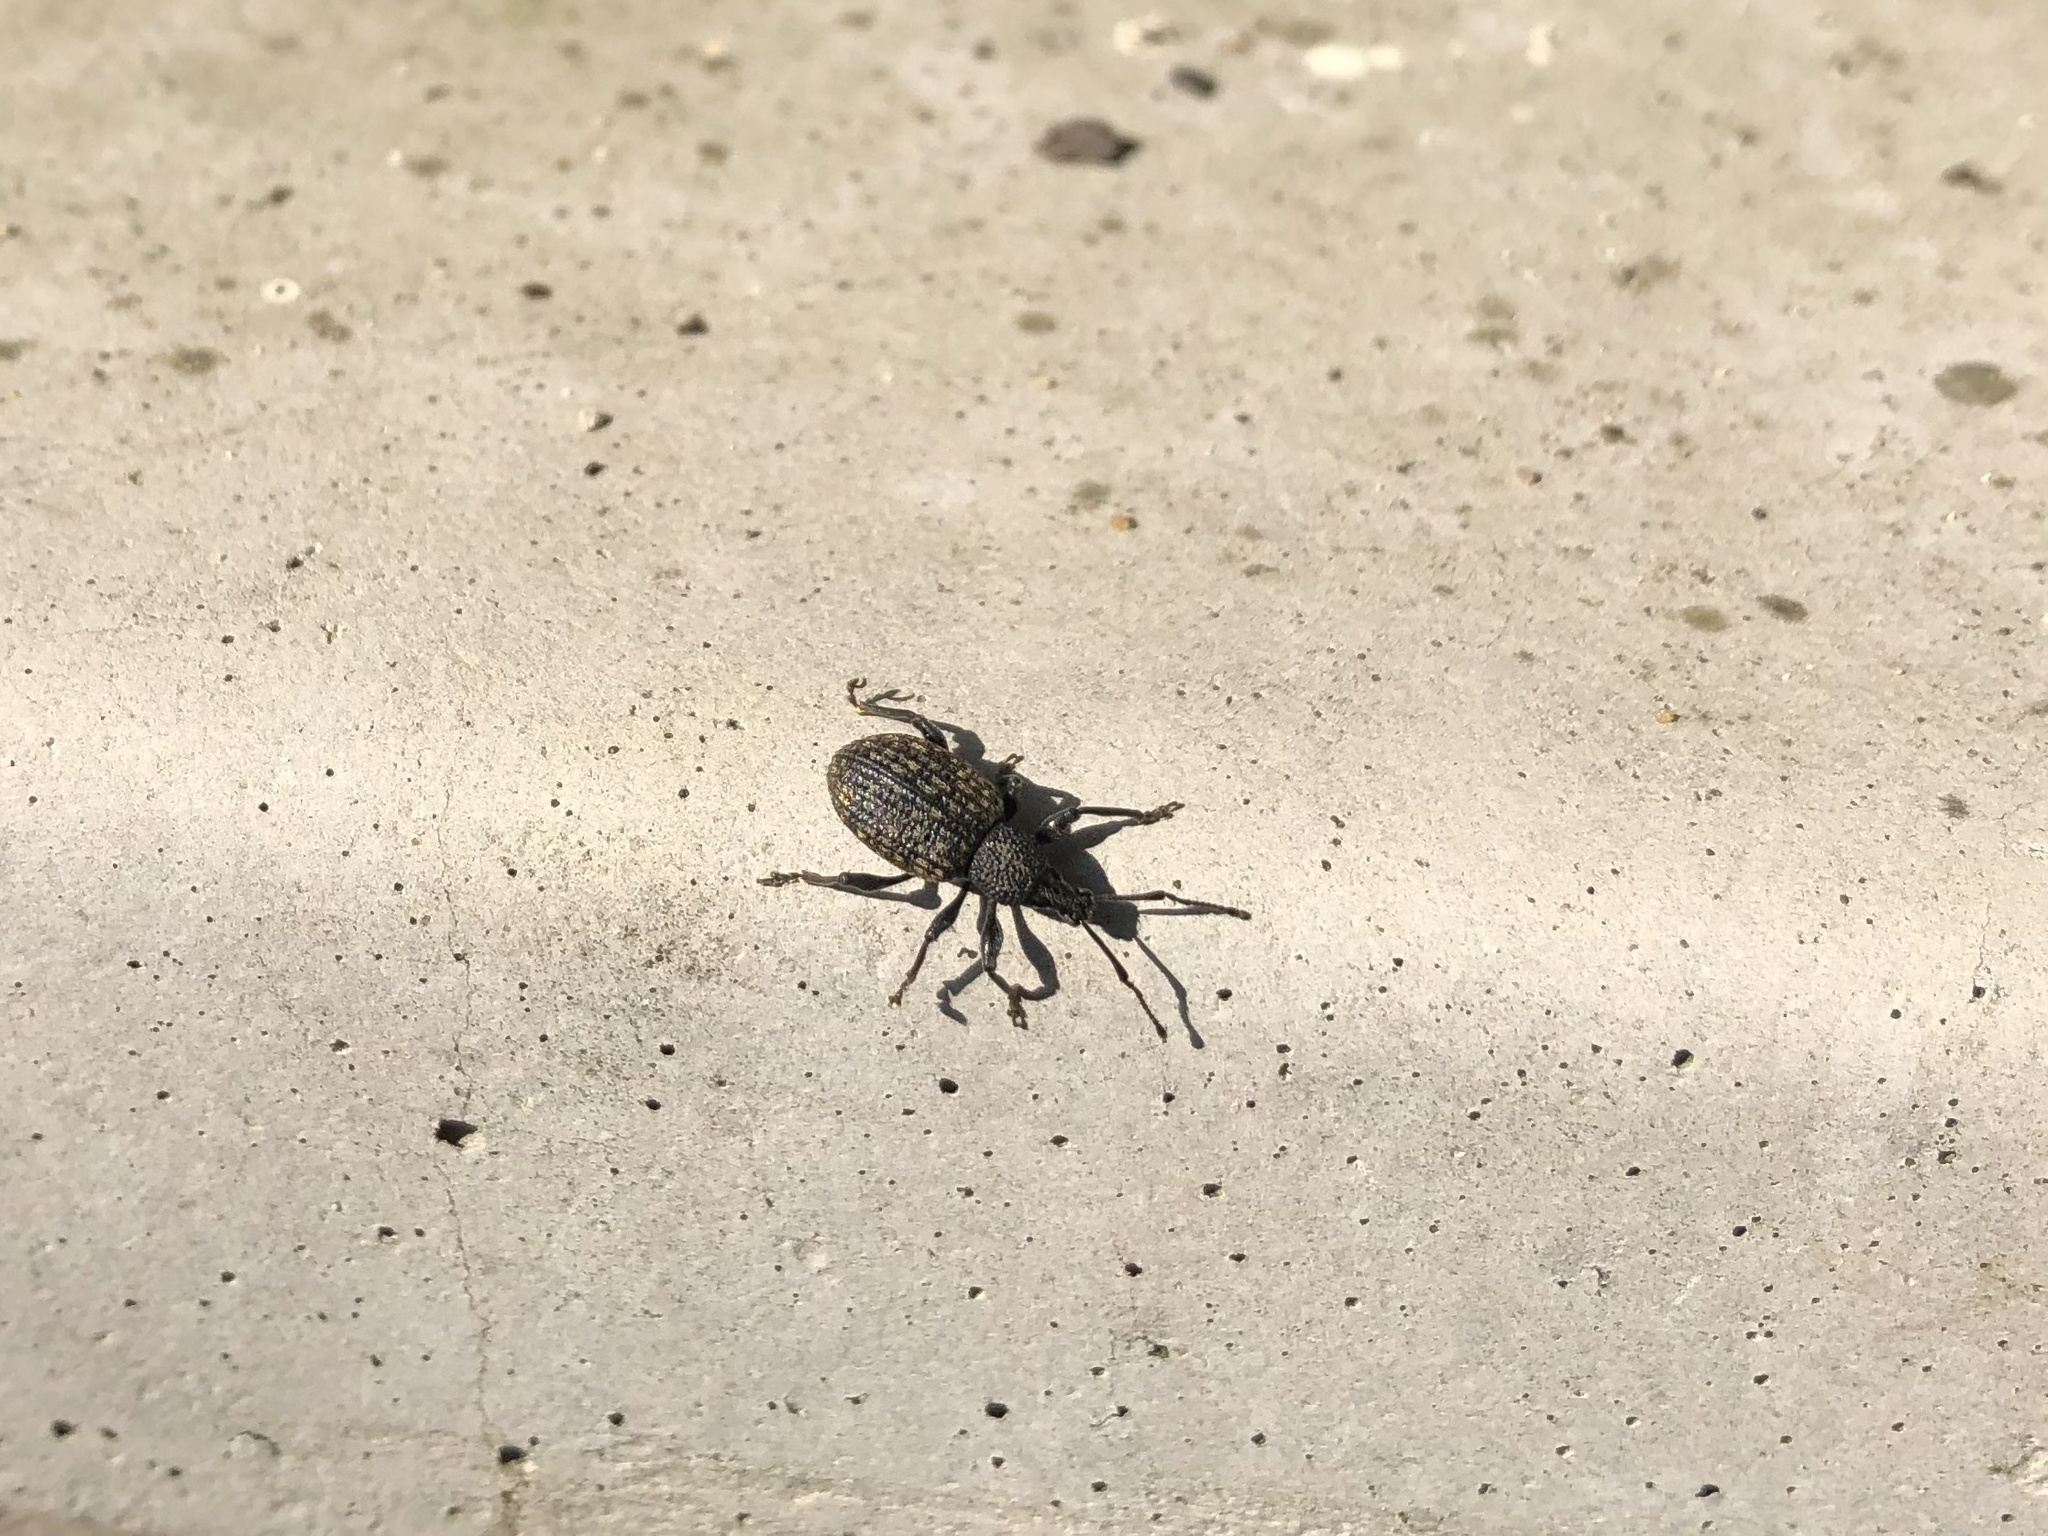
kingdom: Animalia
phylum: Arthropoda
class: Insecta
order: Coleoptera
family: Curculionidae
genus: Otiorhynchus
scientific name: Otiorhynchus sulcatus
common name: Black vine weevil
